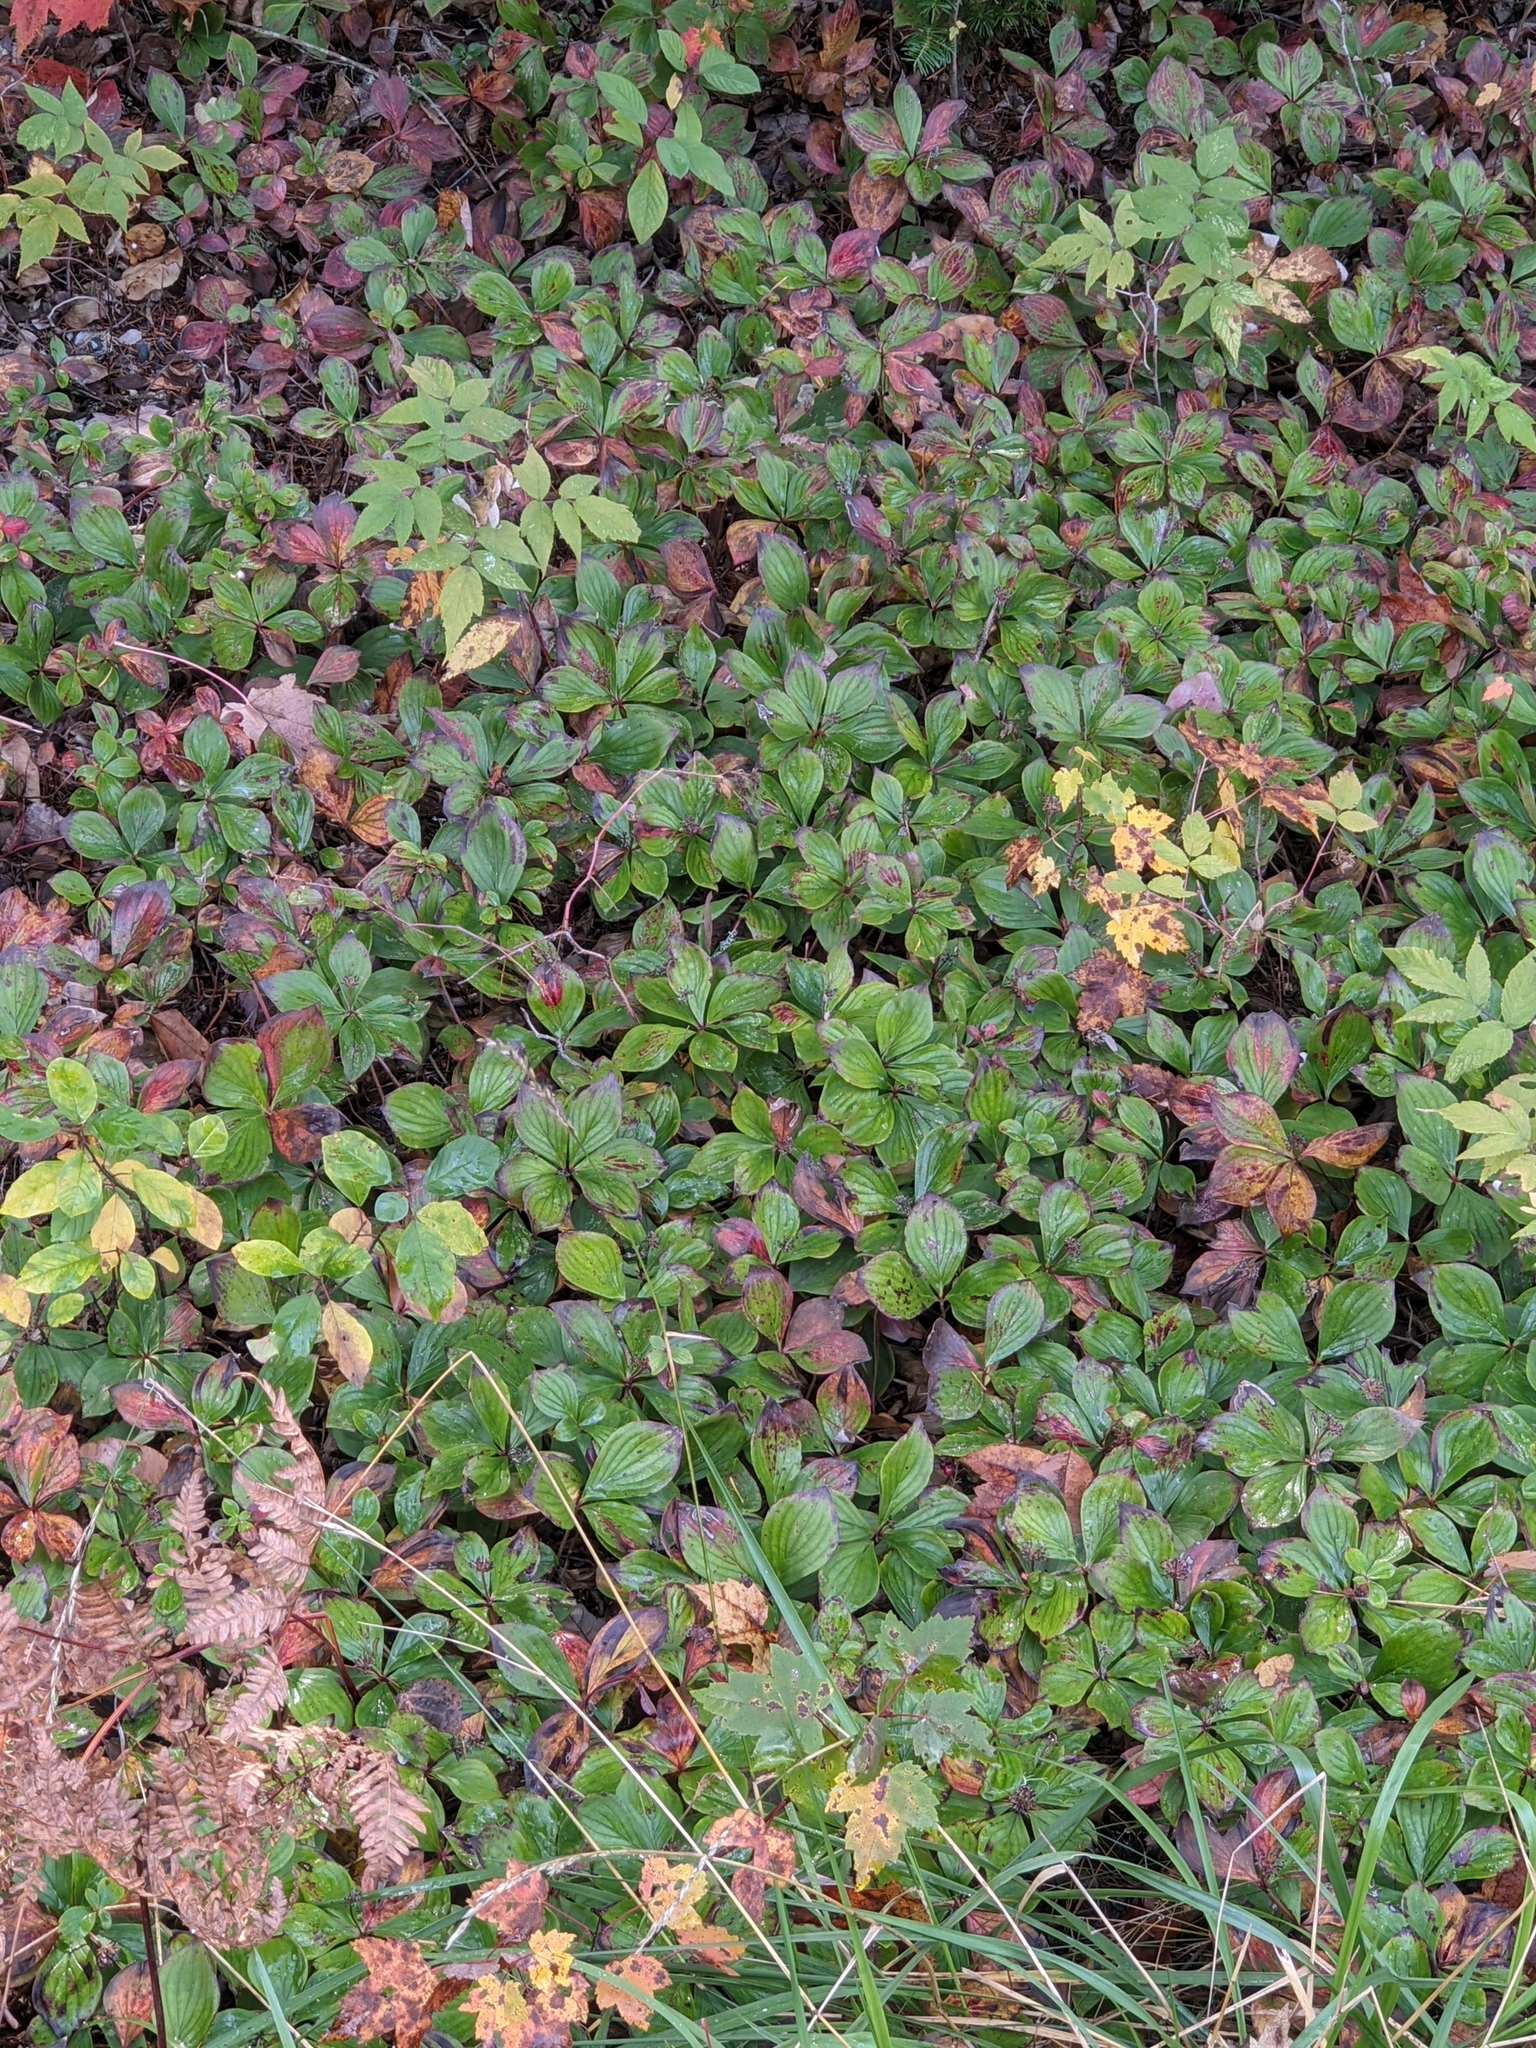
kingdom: Plantae
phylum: Tracheophyta
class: Magnoliopsida
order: Cornales
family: Cornaceae
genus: Cornus
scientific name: Cornus canadensis
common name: Creeping dogwood
